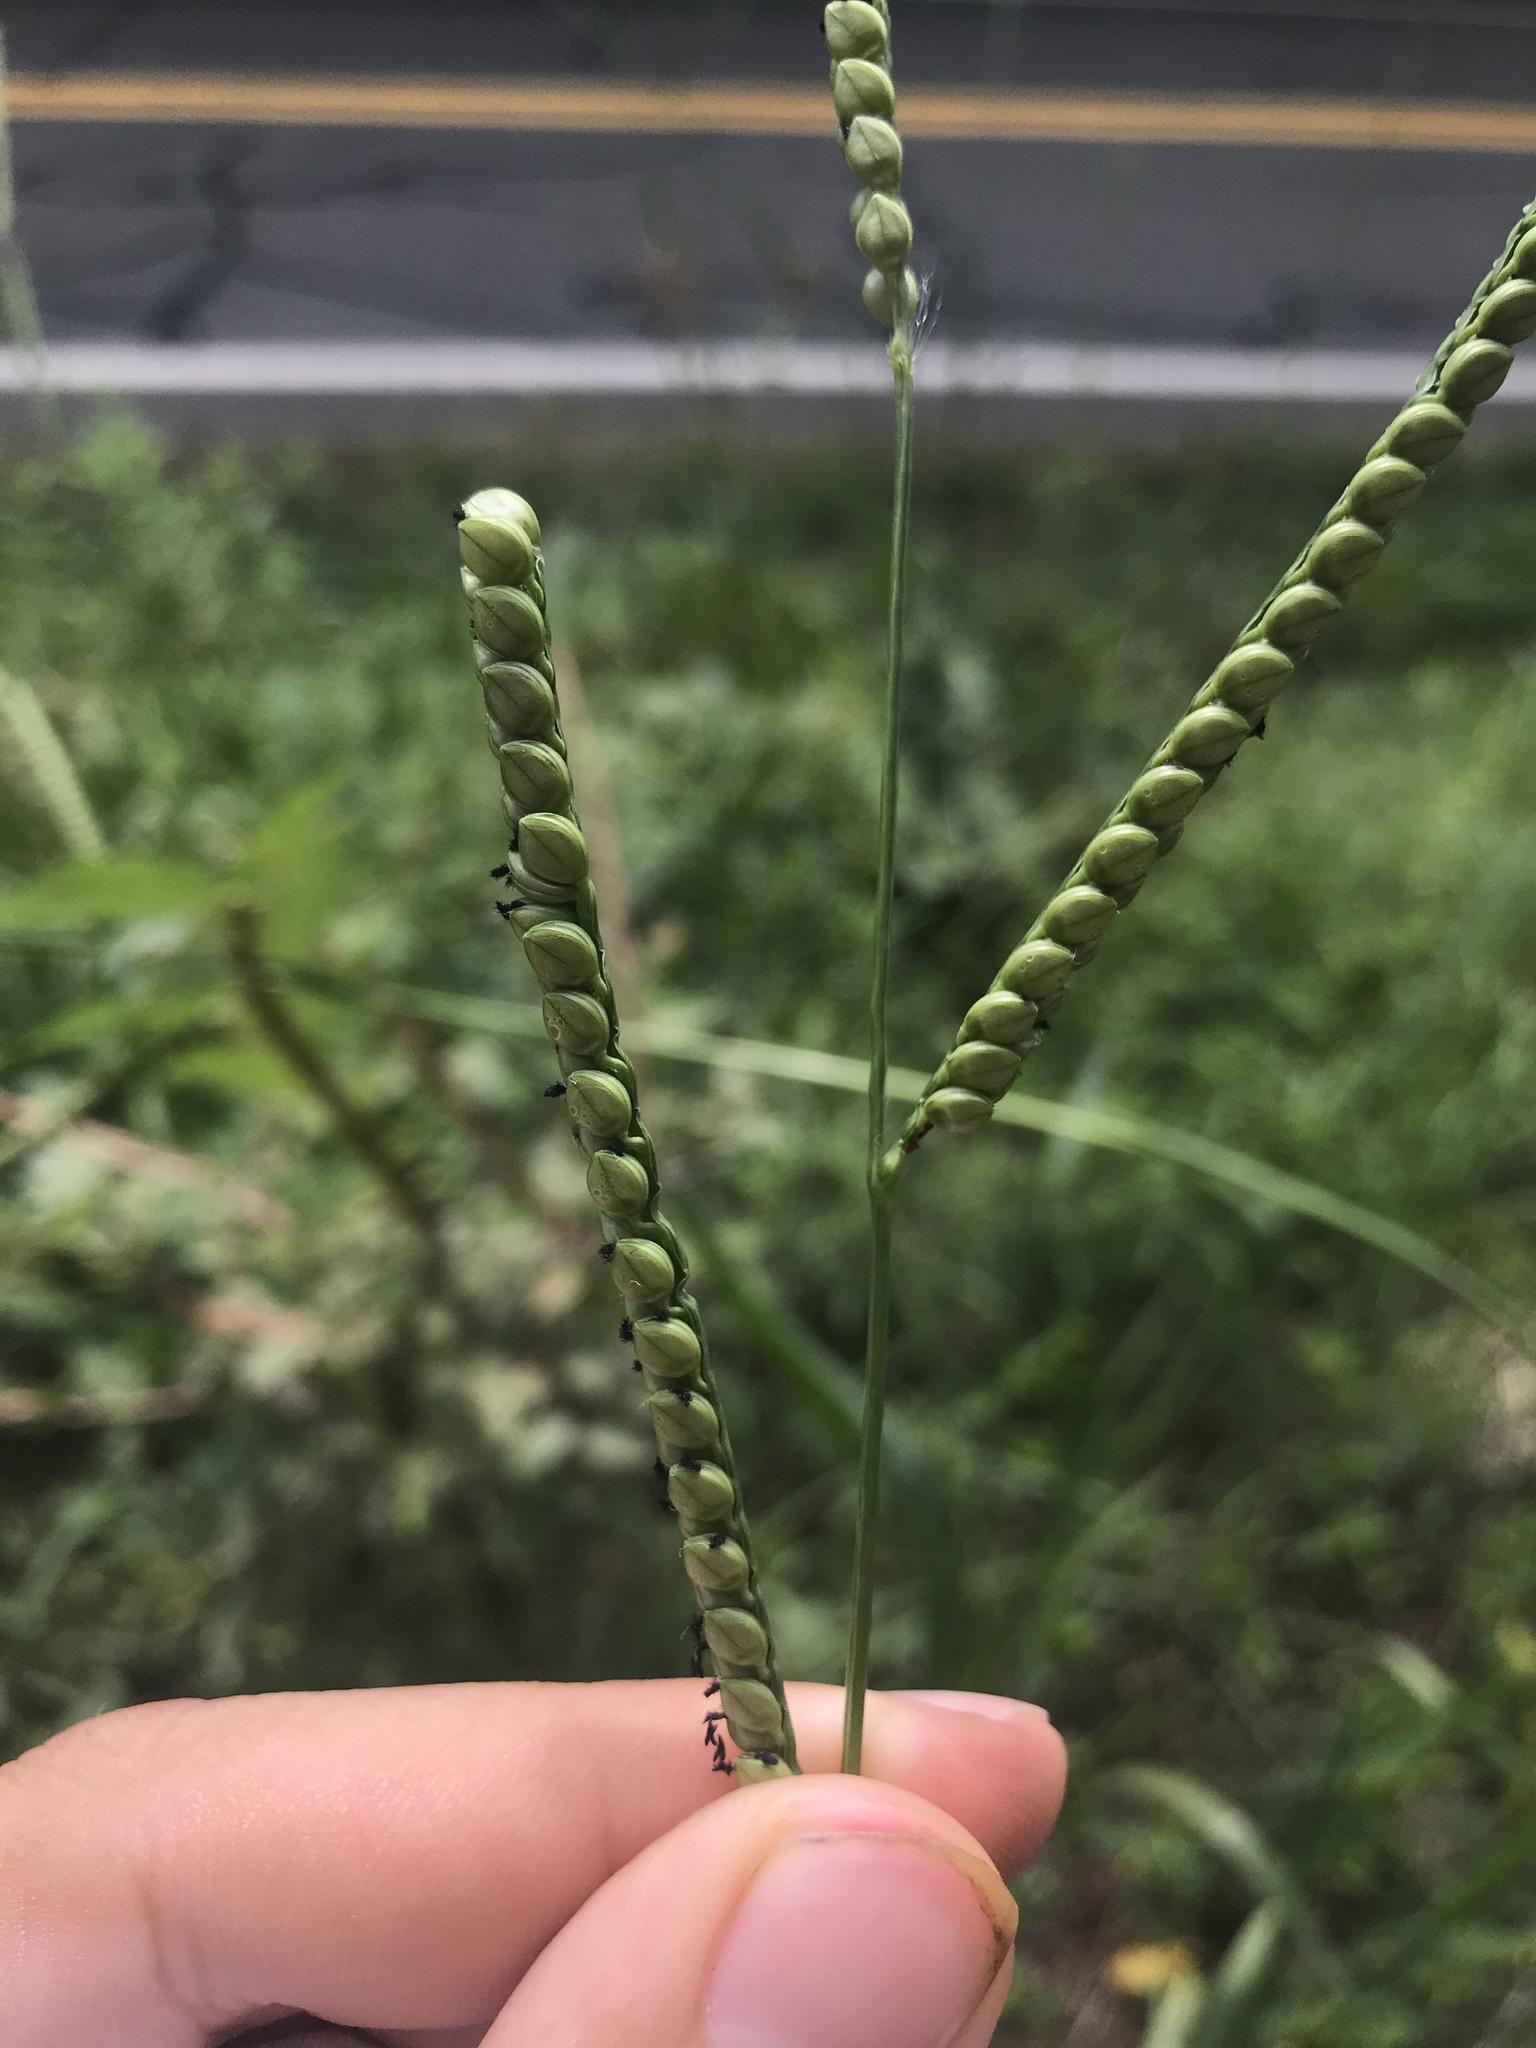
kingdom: Plantae
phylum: Tracheophyta
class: Liliopsida
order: Poales
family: Poaceae
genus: Paspalum
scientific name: Paspalum floridanum
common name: Florida paspalum
